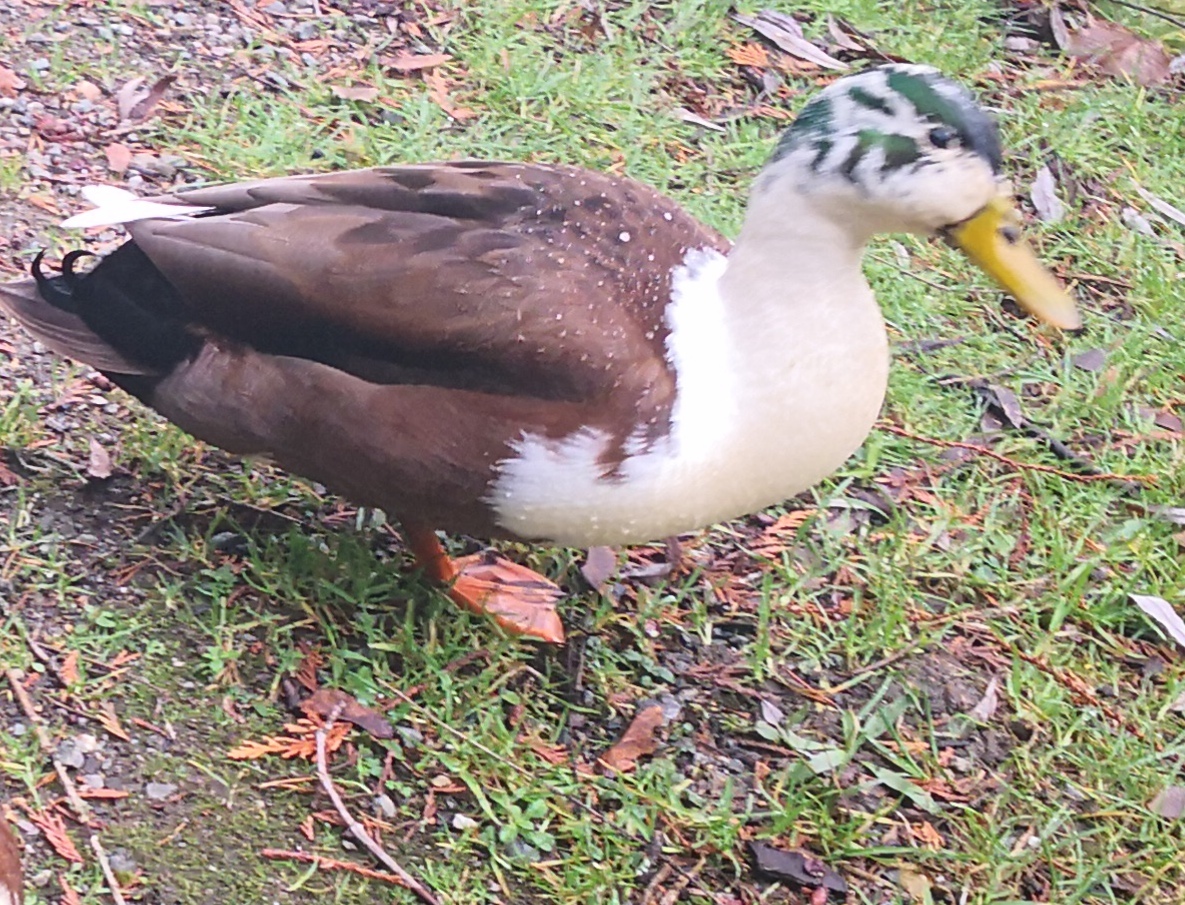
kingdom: Animalia
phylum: Chordata
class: Aves
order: Anseriformes
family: Anatidae
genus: Anas
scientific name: Anas platyrhynchos
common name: Mallard
